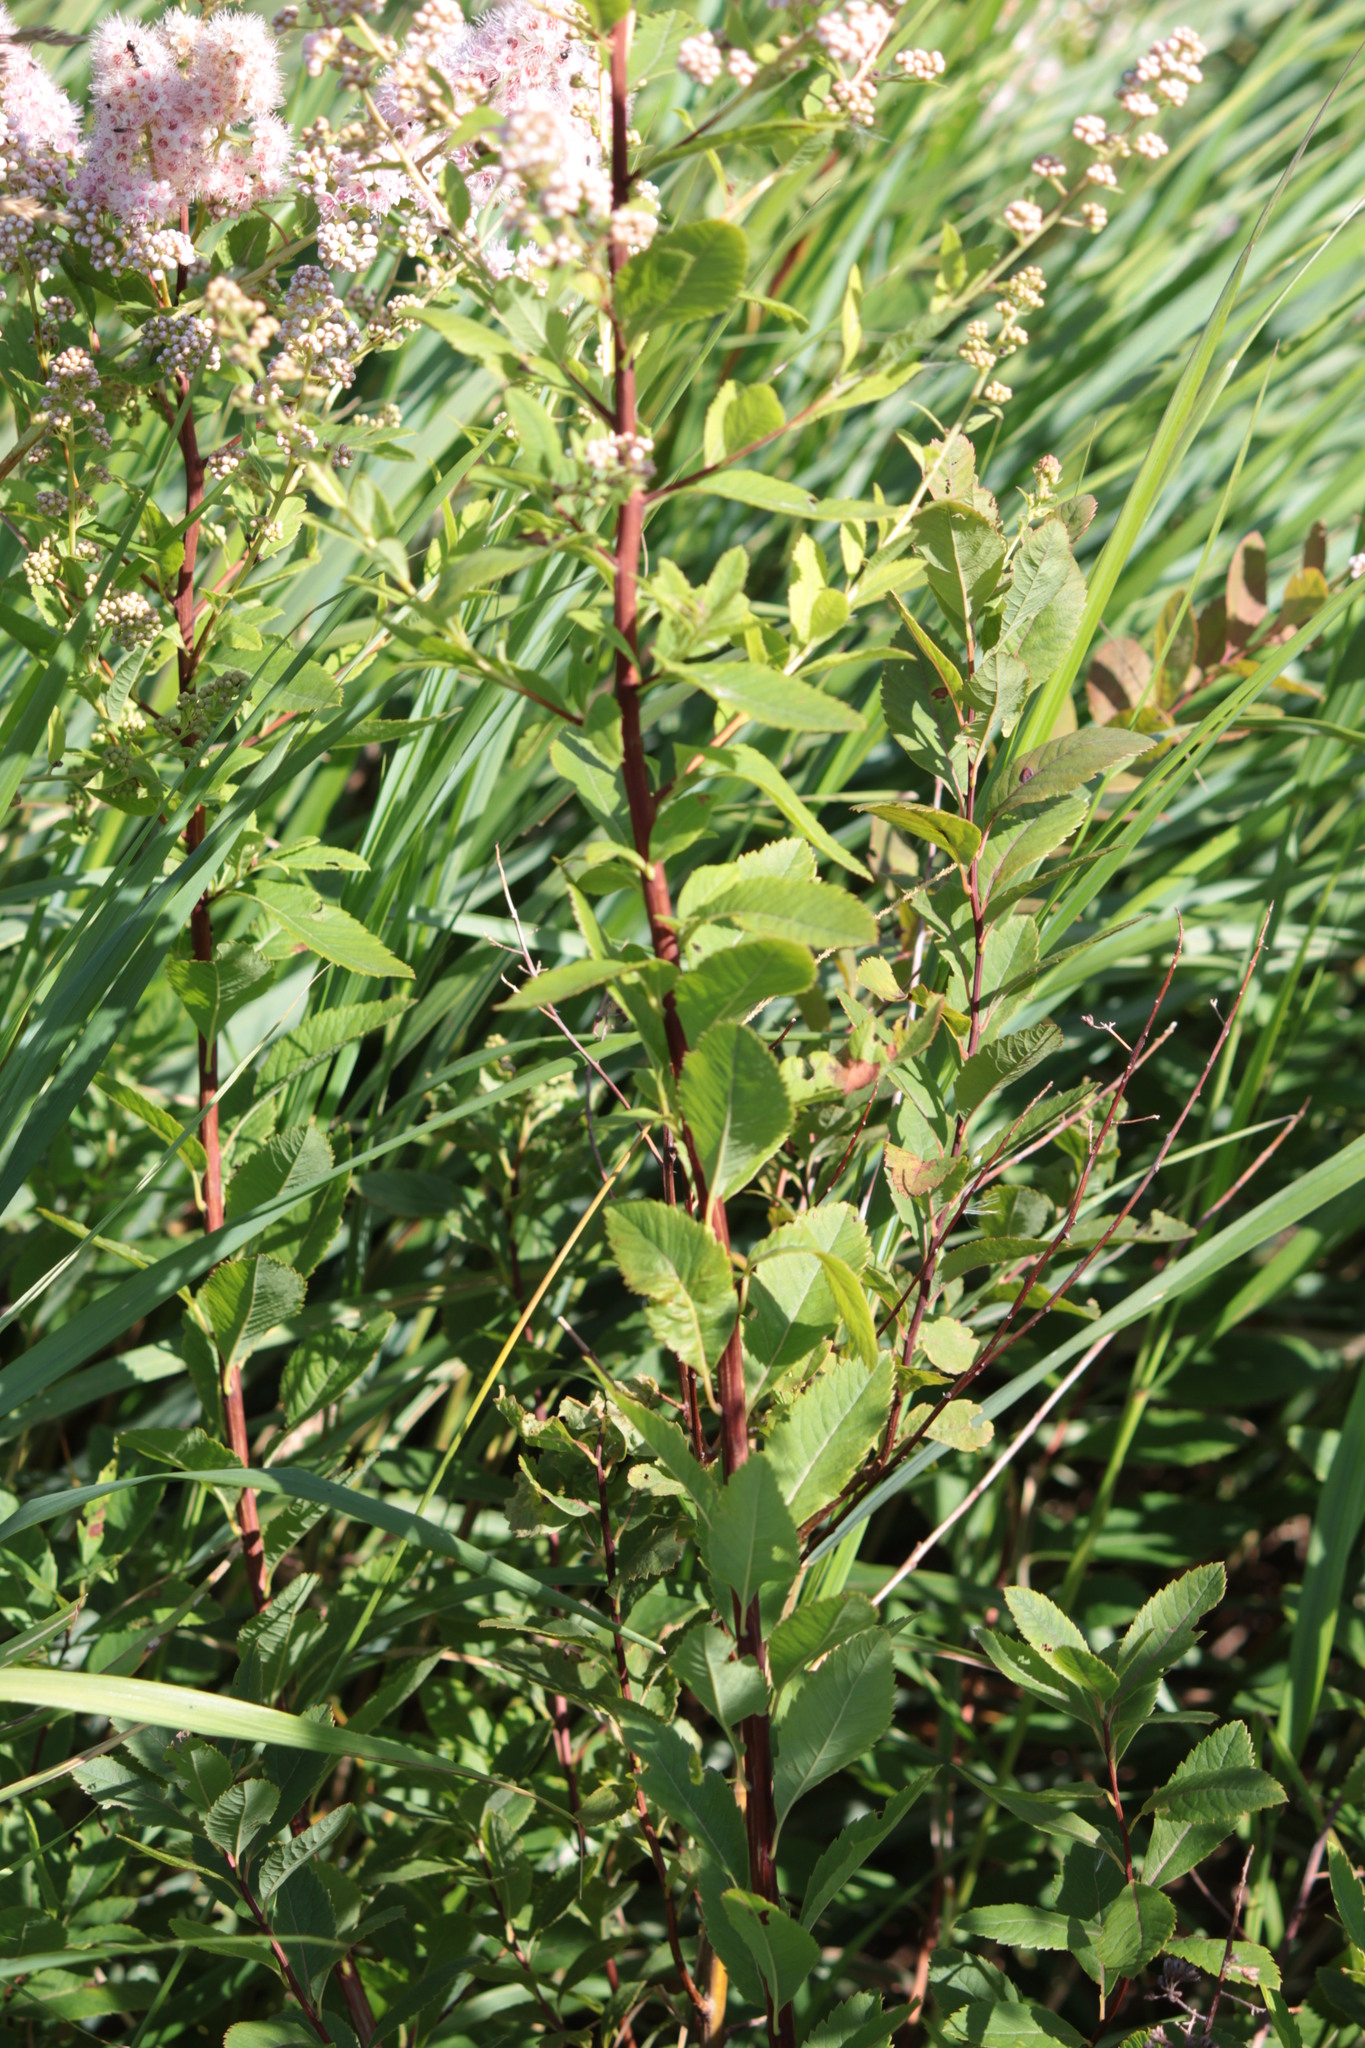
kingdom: Plantae
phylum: Tracheophyta
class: Magnoliopsida
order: Rosales
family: Rosaceae
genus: Spiraea
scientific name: Spiraea alba
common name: Pale bridewort
